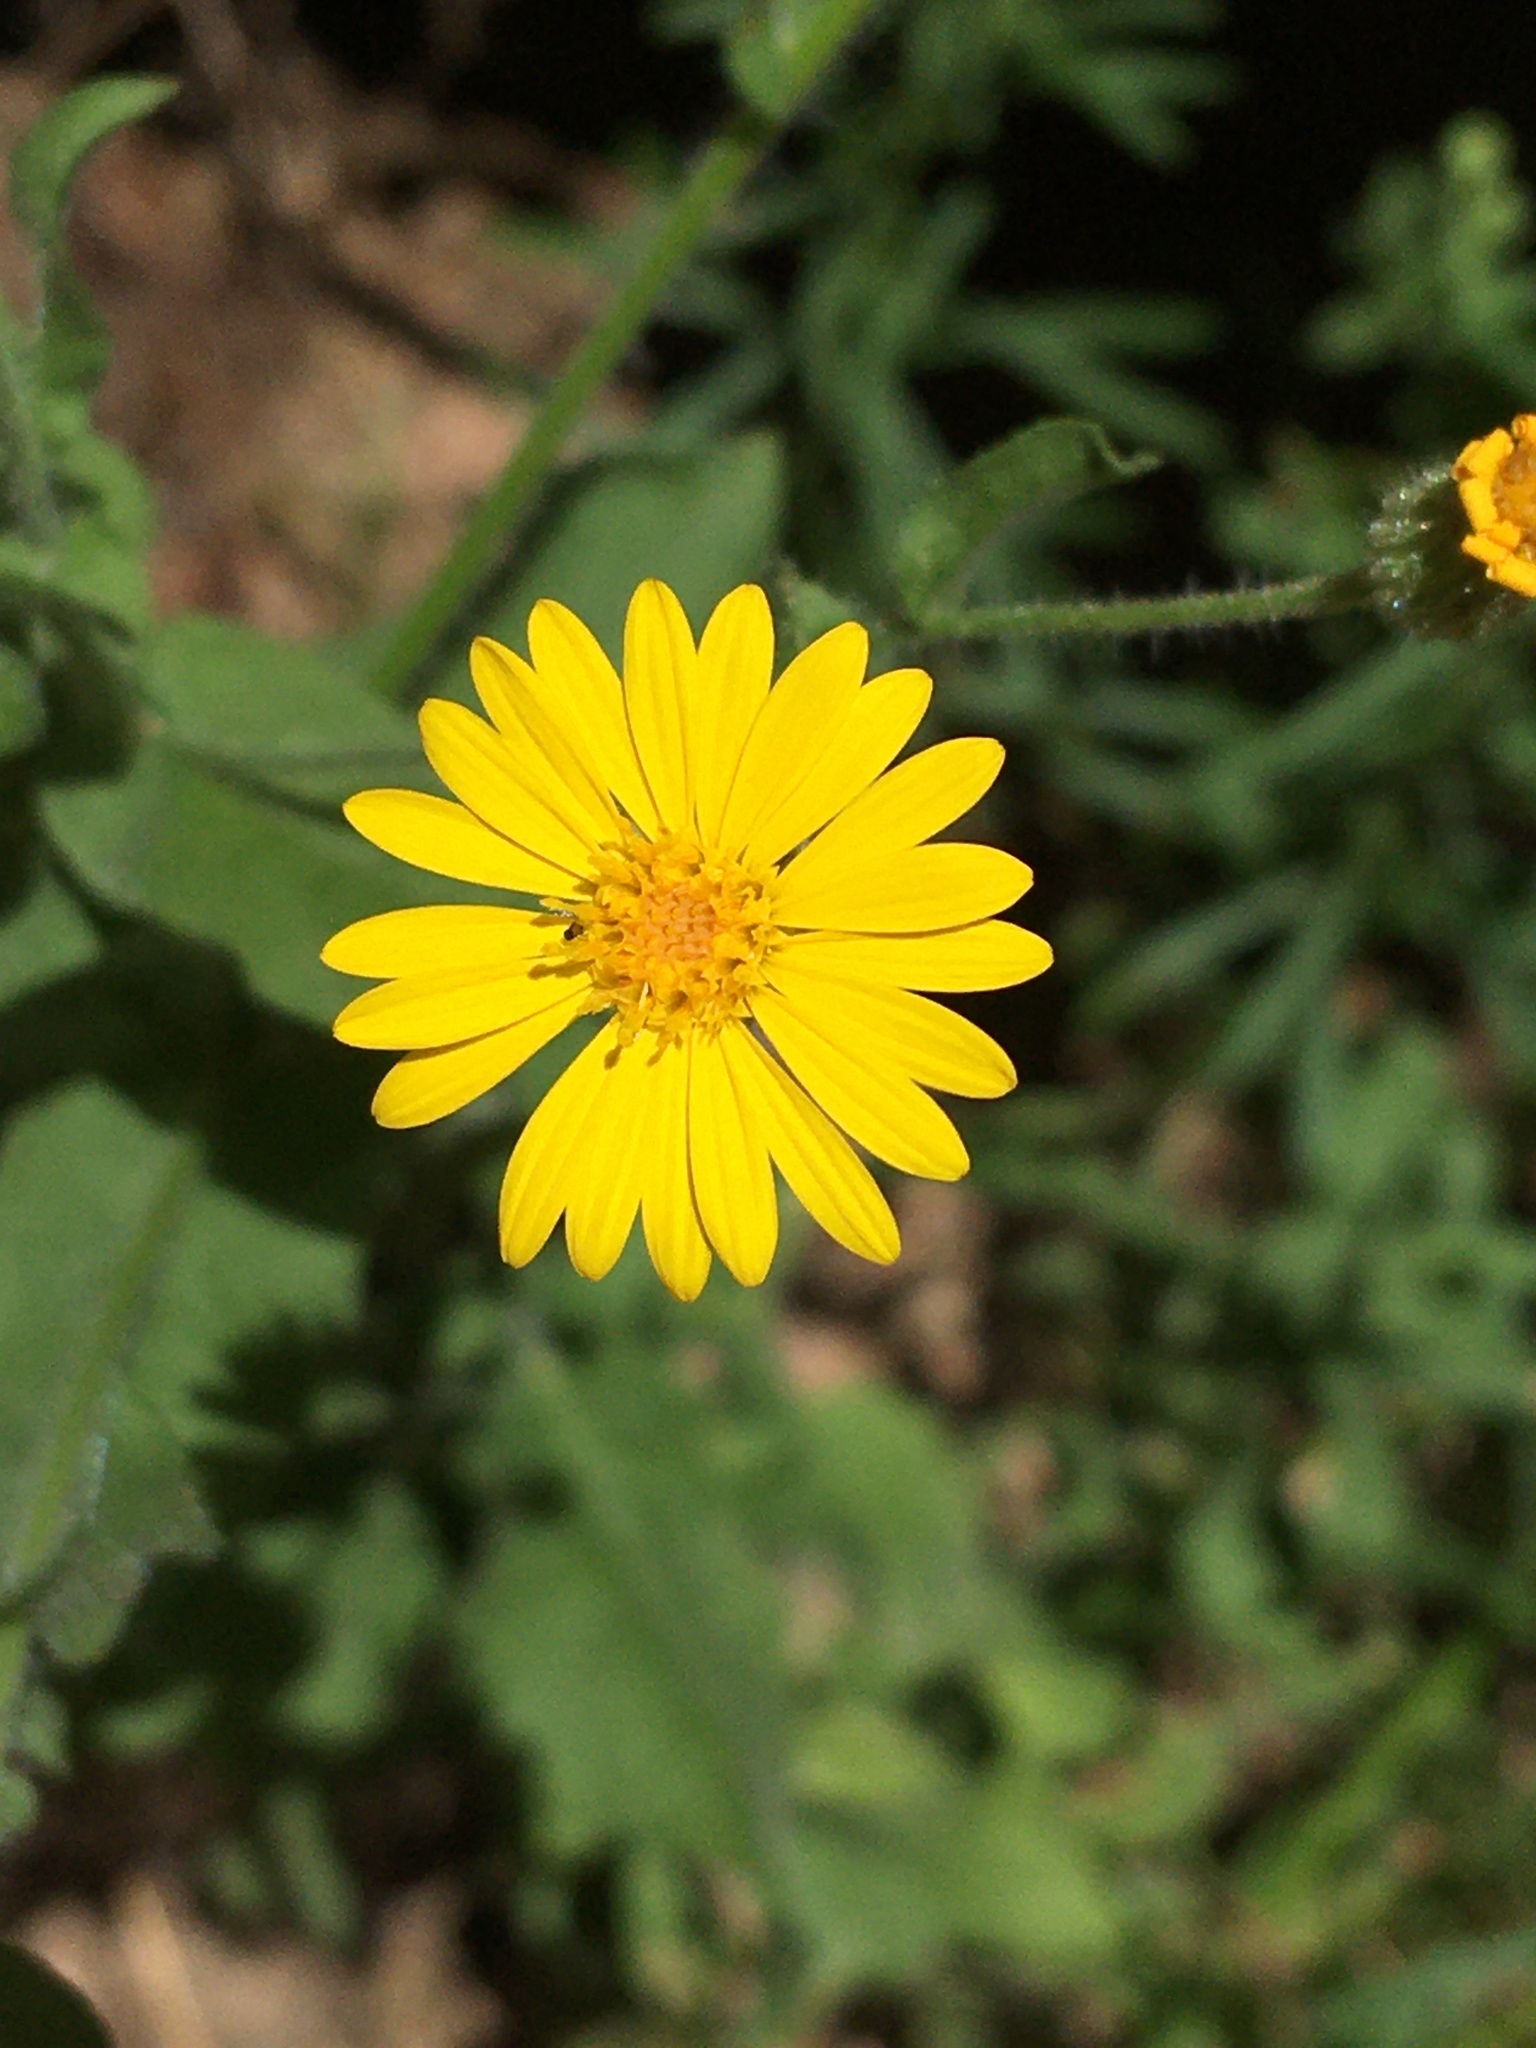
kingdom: Plantae
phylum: Tracheophyta
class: Magnoliopsida
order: Asterales
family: Asteraceae
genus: Heterotheca
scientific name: Heterotheca subaxillaris
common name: Camphorweed
